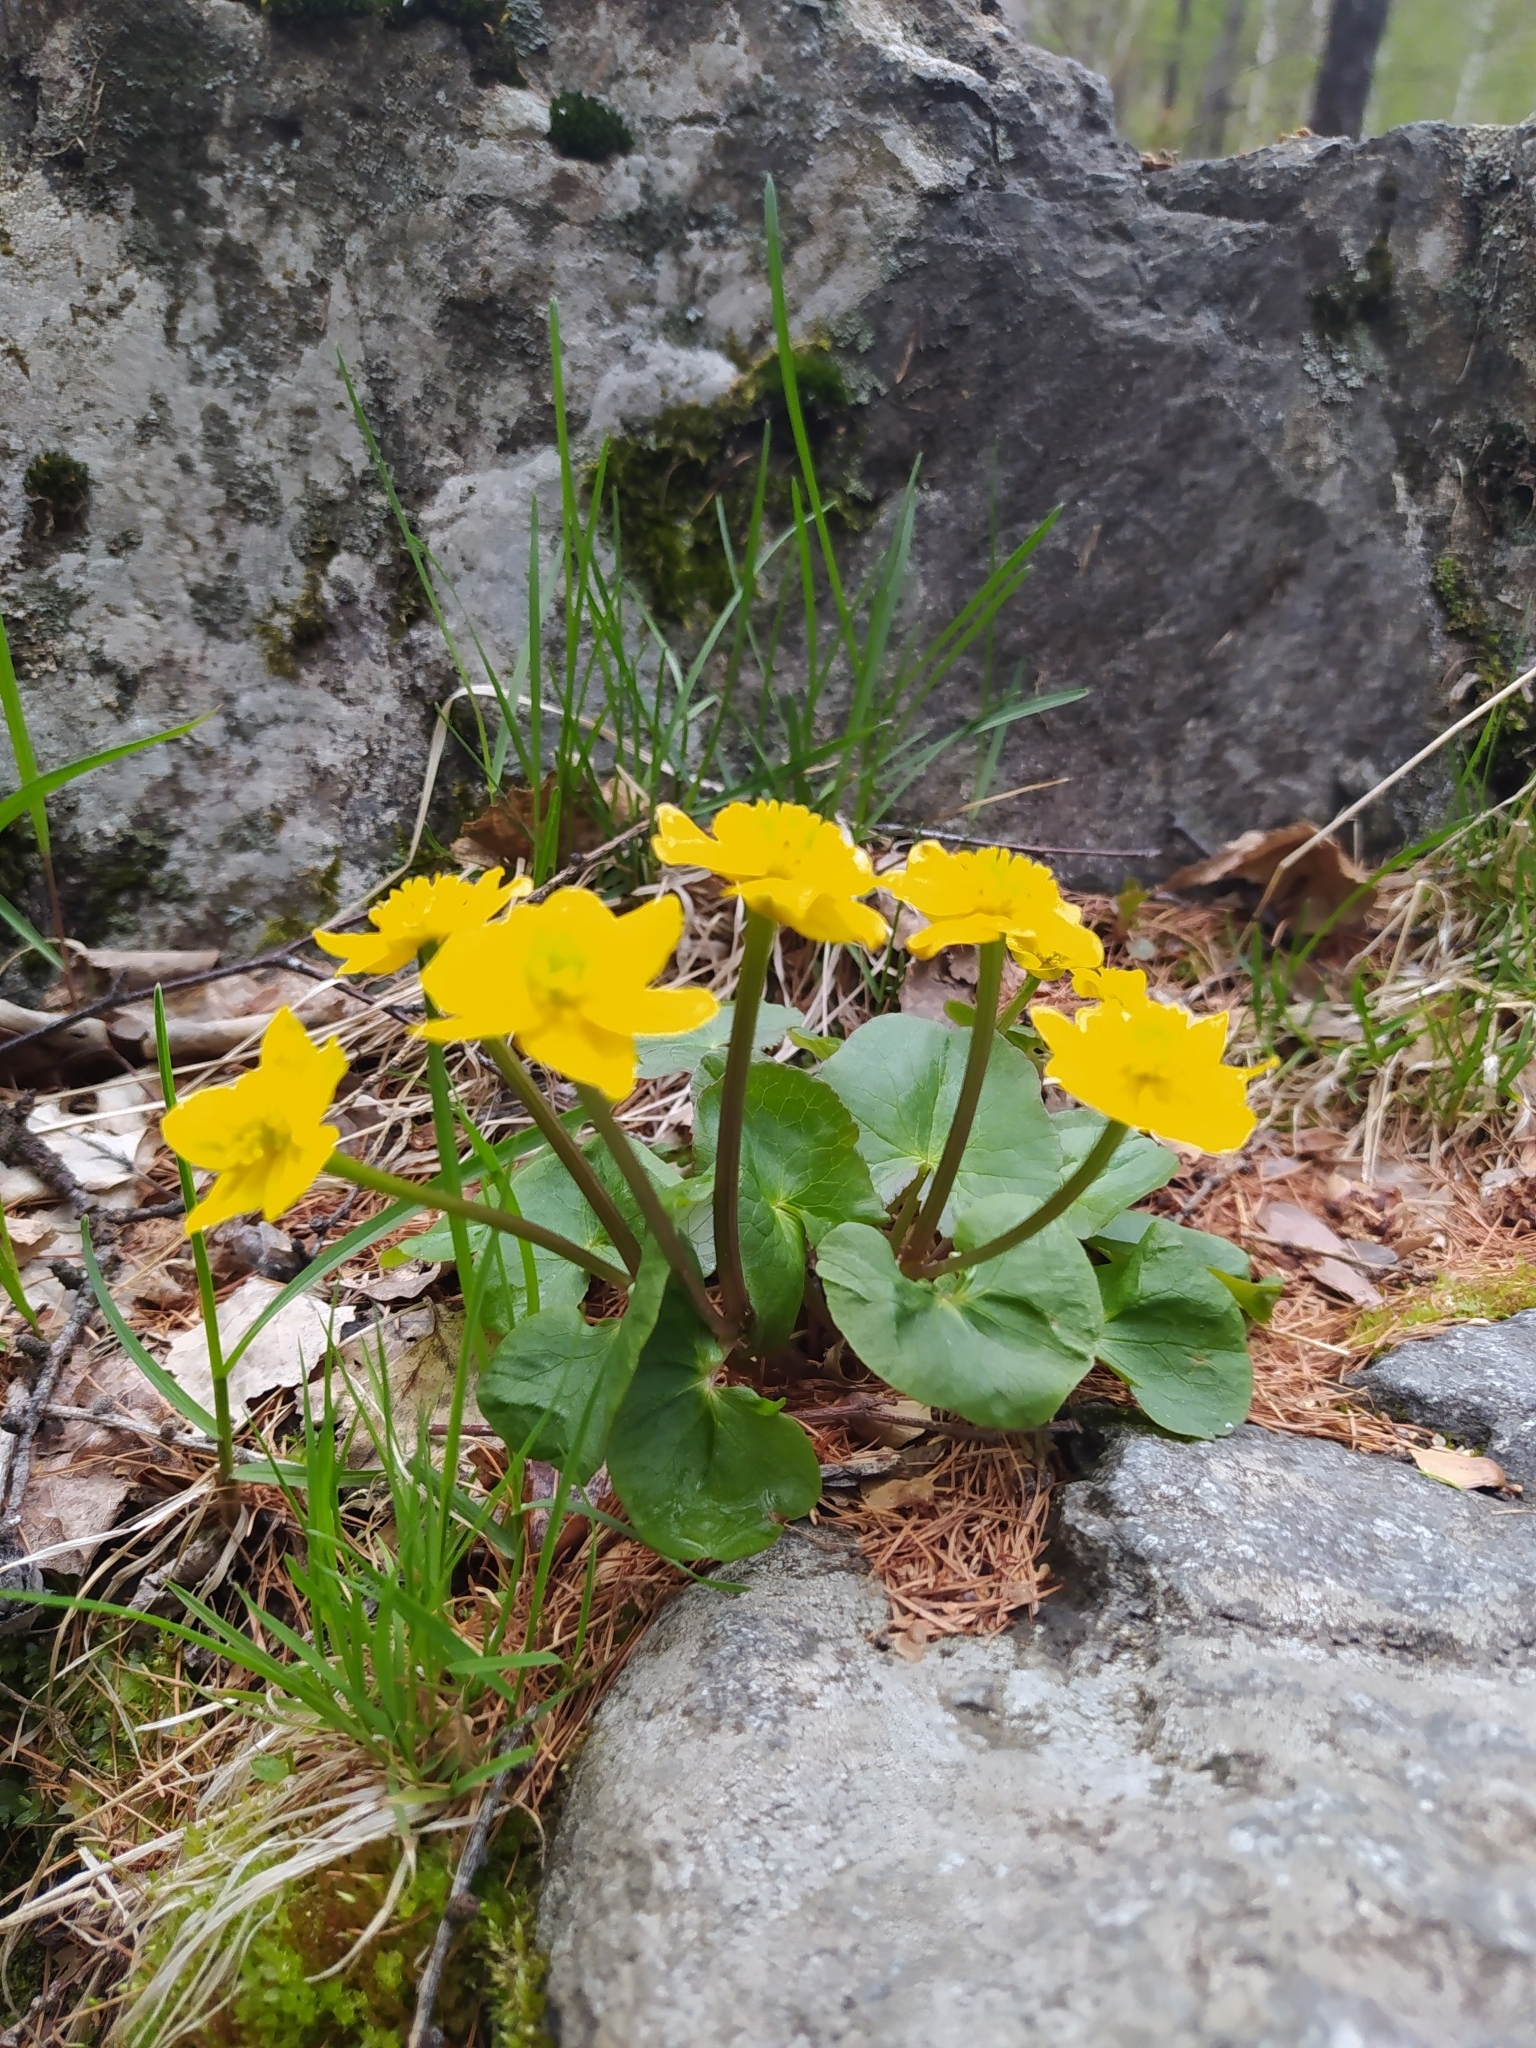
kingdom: Plantae
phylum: Tracheophyta
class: Magnoliopsida
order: Ranunculales
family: Ranunculaceae
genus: Caltha
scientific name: Caltha palustris
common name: Marsh marigold
